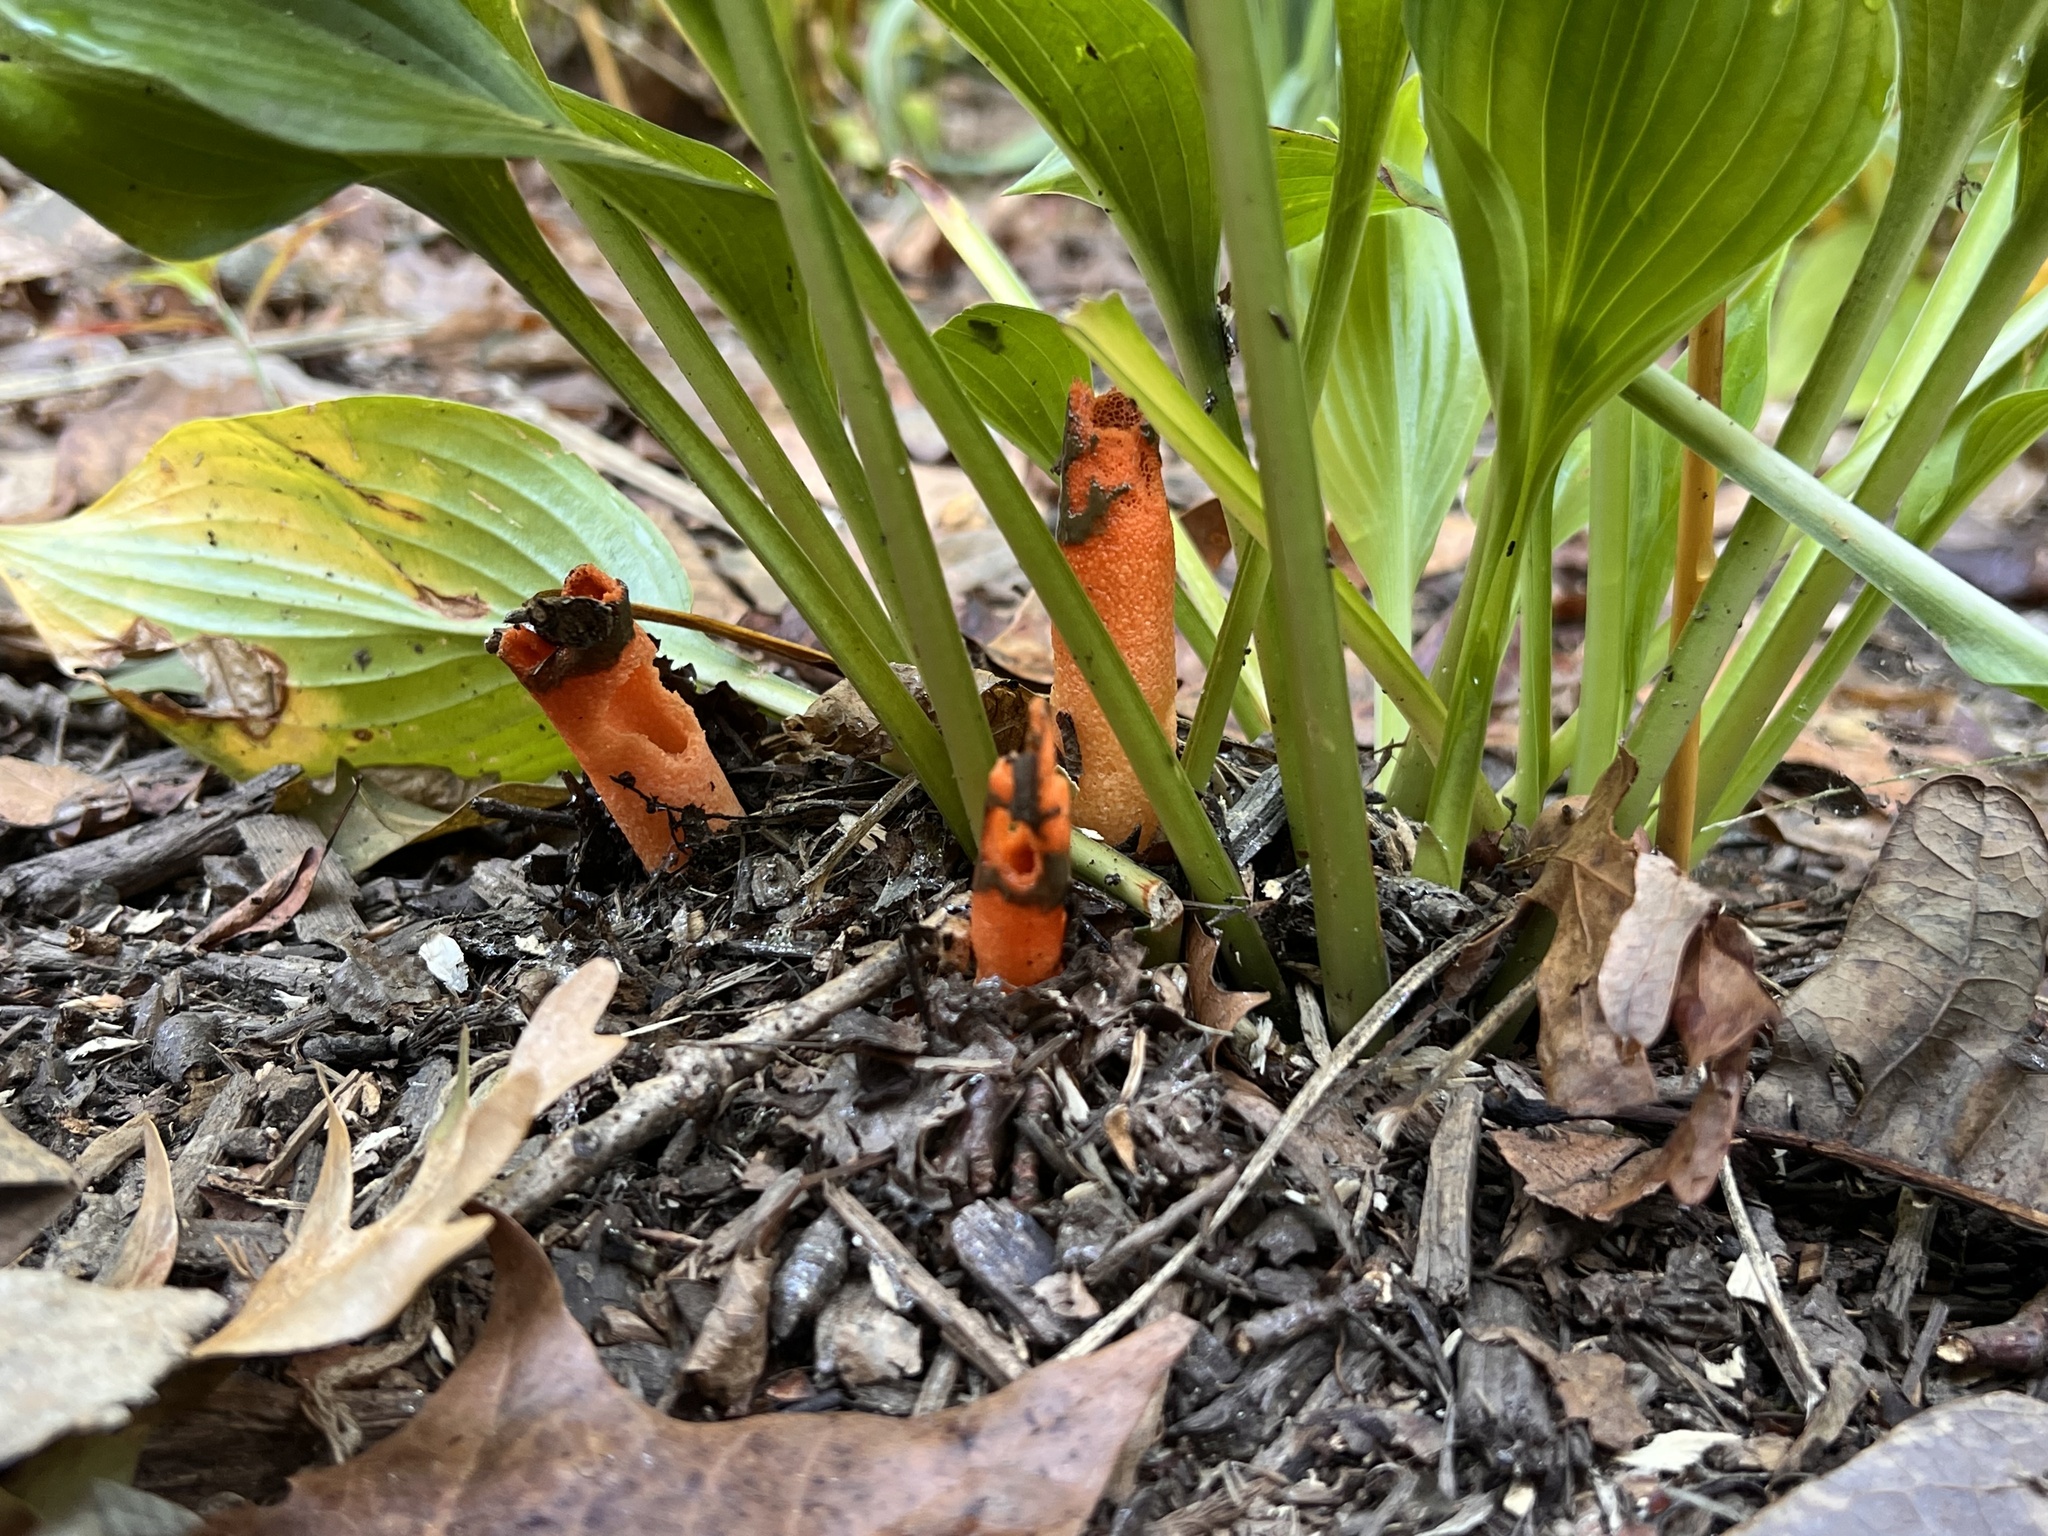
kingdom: Fungi
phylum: Basidiomycota
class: Agaricomycetes
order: Phallales
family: Phallaceae
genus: Mutinus
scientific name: Mutinus elegans
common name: Devil's dipstick
